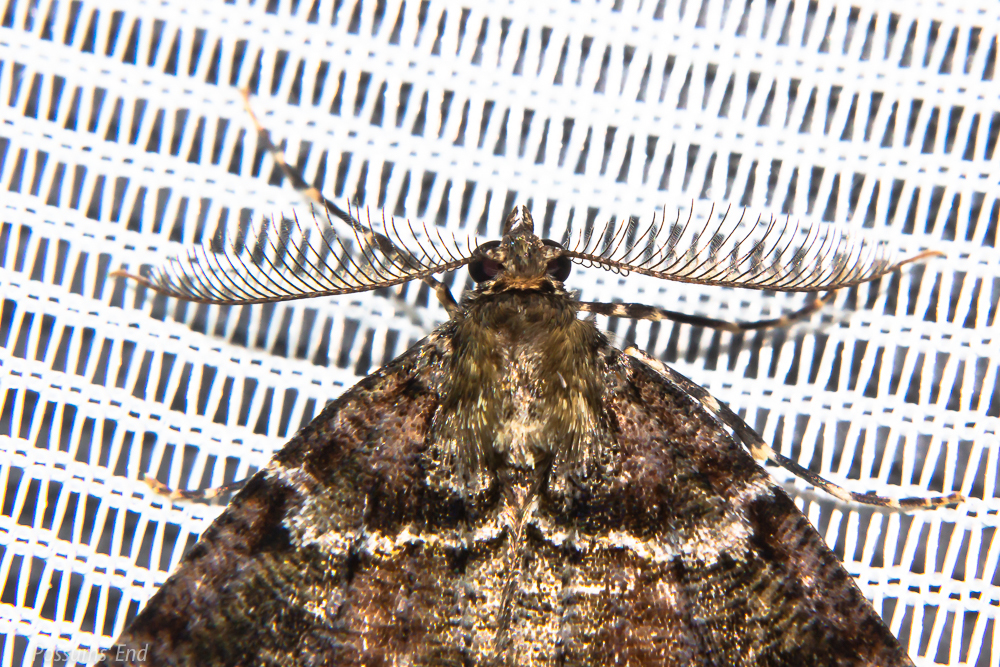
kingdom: Animalia
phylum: Arthropoda
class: Insecta
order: Lepidoptera
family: Geometridae
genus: Pseudocoremia
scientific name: Pseudocoremia productata
